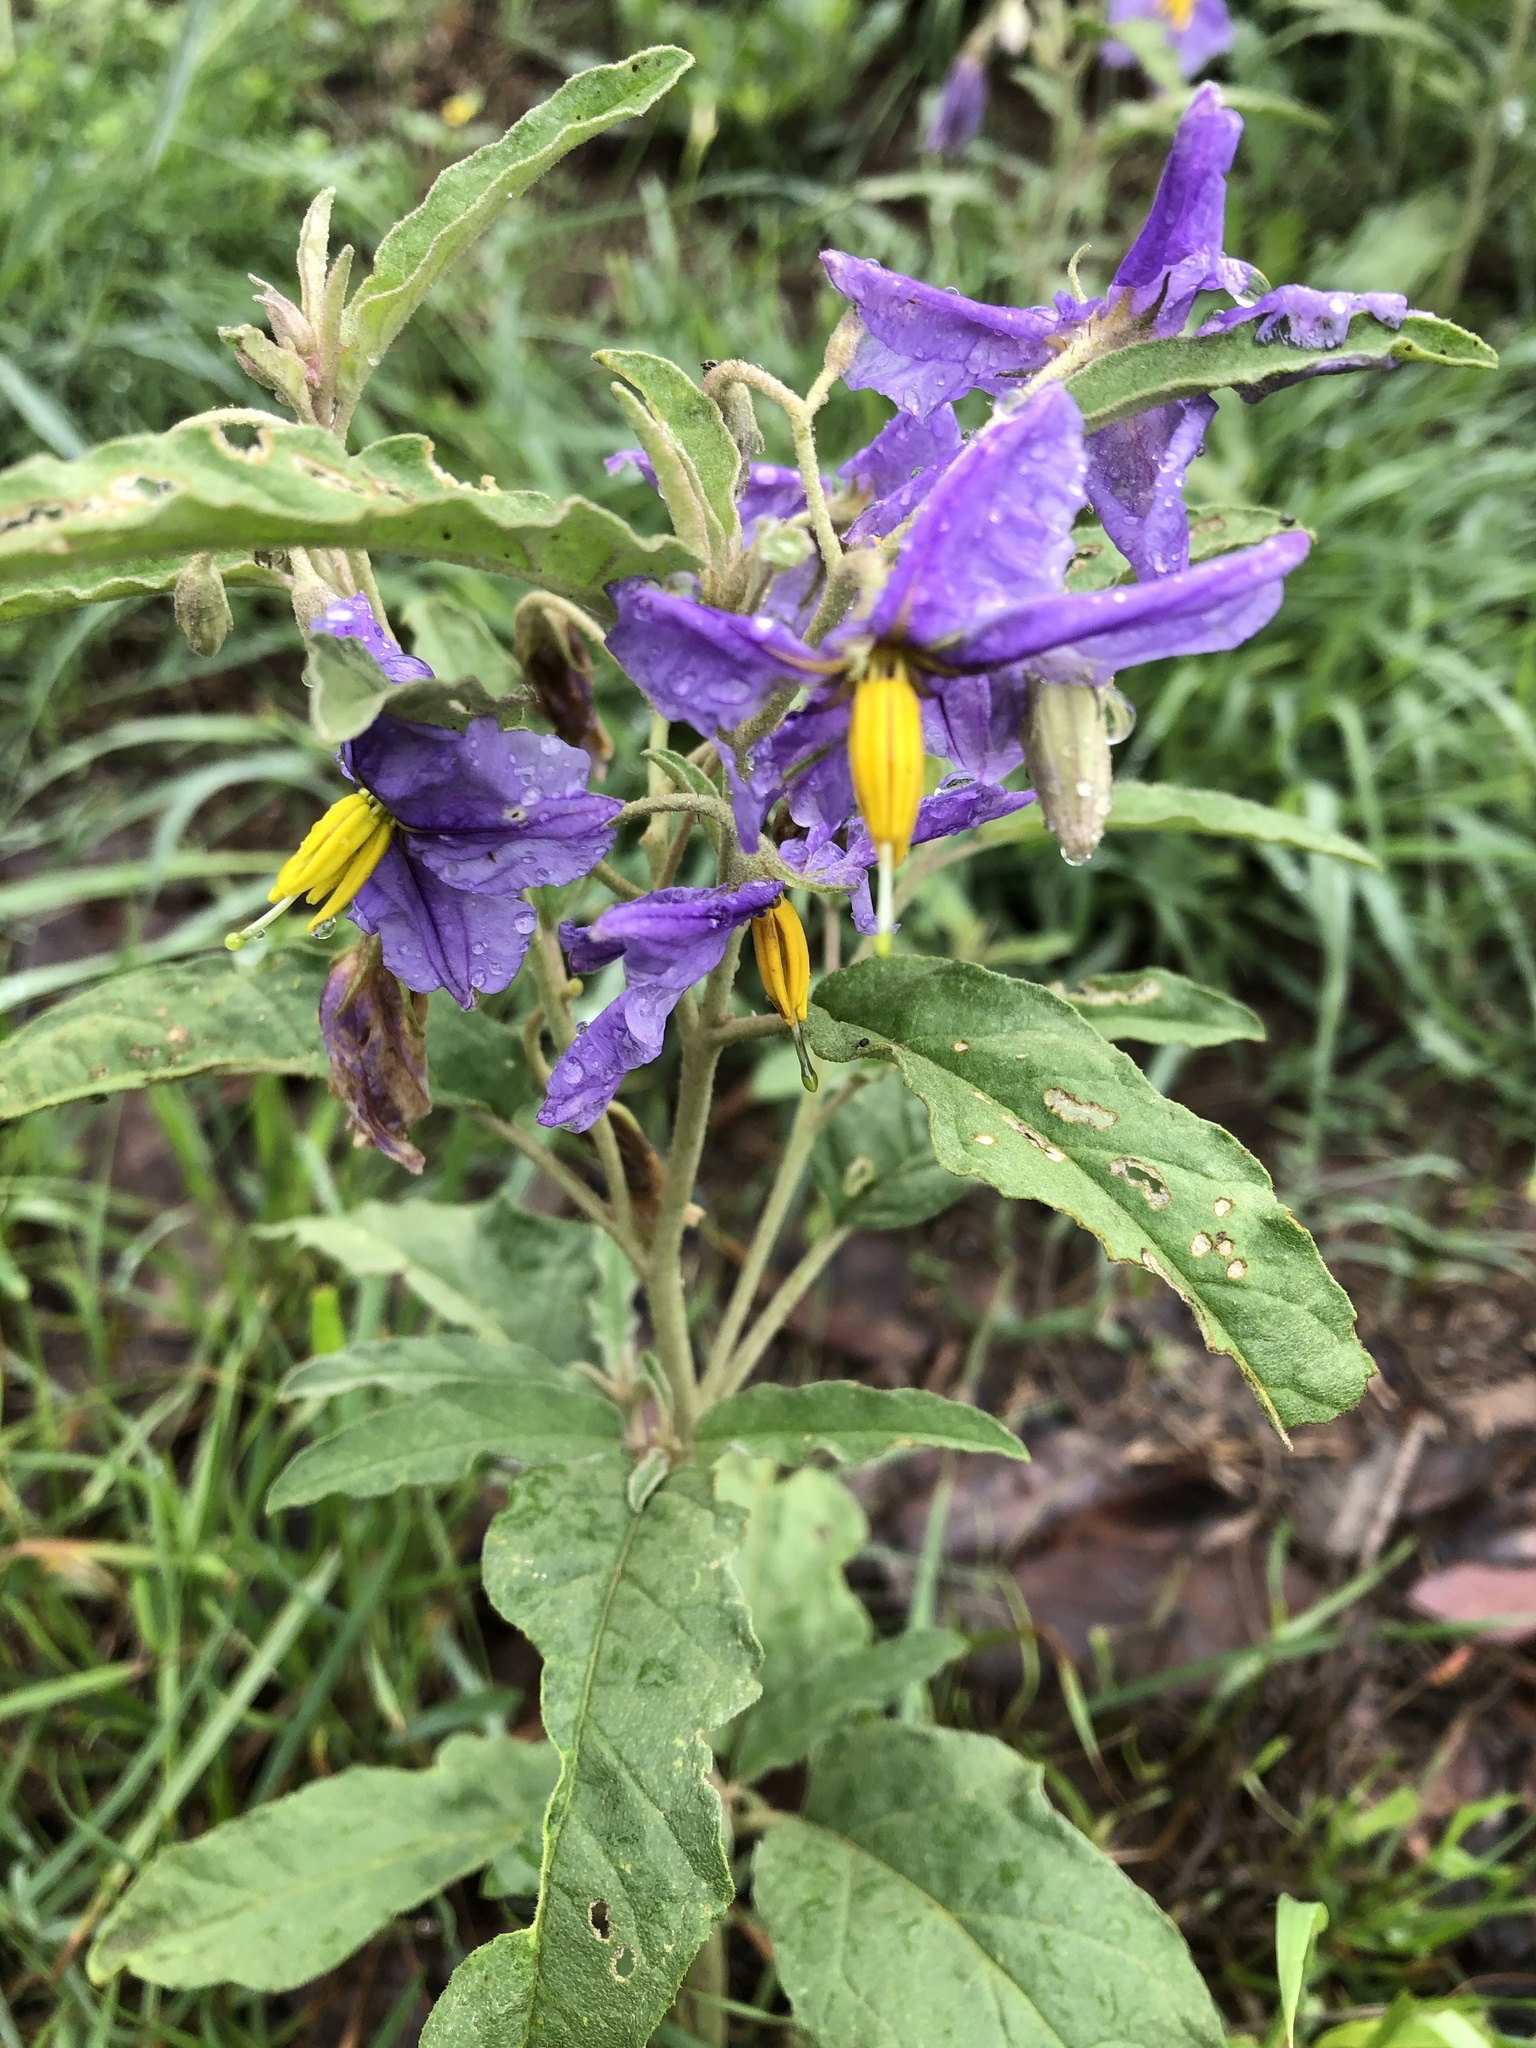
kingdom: Plantae
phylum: Tracheophyta
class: Magnoliopsida
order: Solanales
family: Solanaceae
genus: Solanum
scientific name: Solanum elaeagnifolium
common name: Silverleaf nightshade
